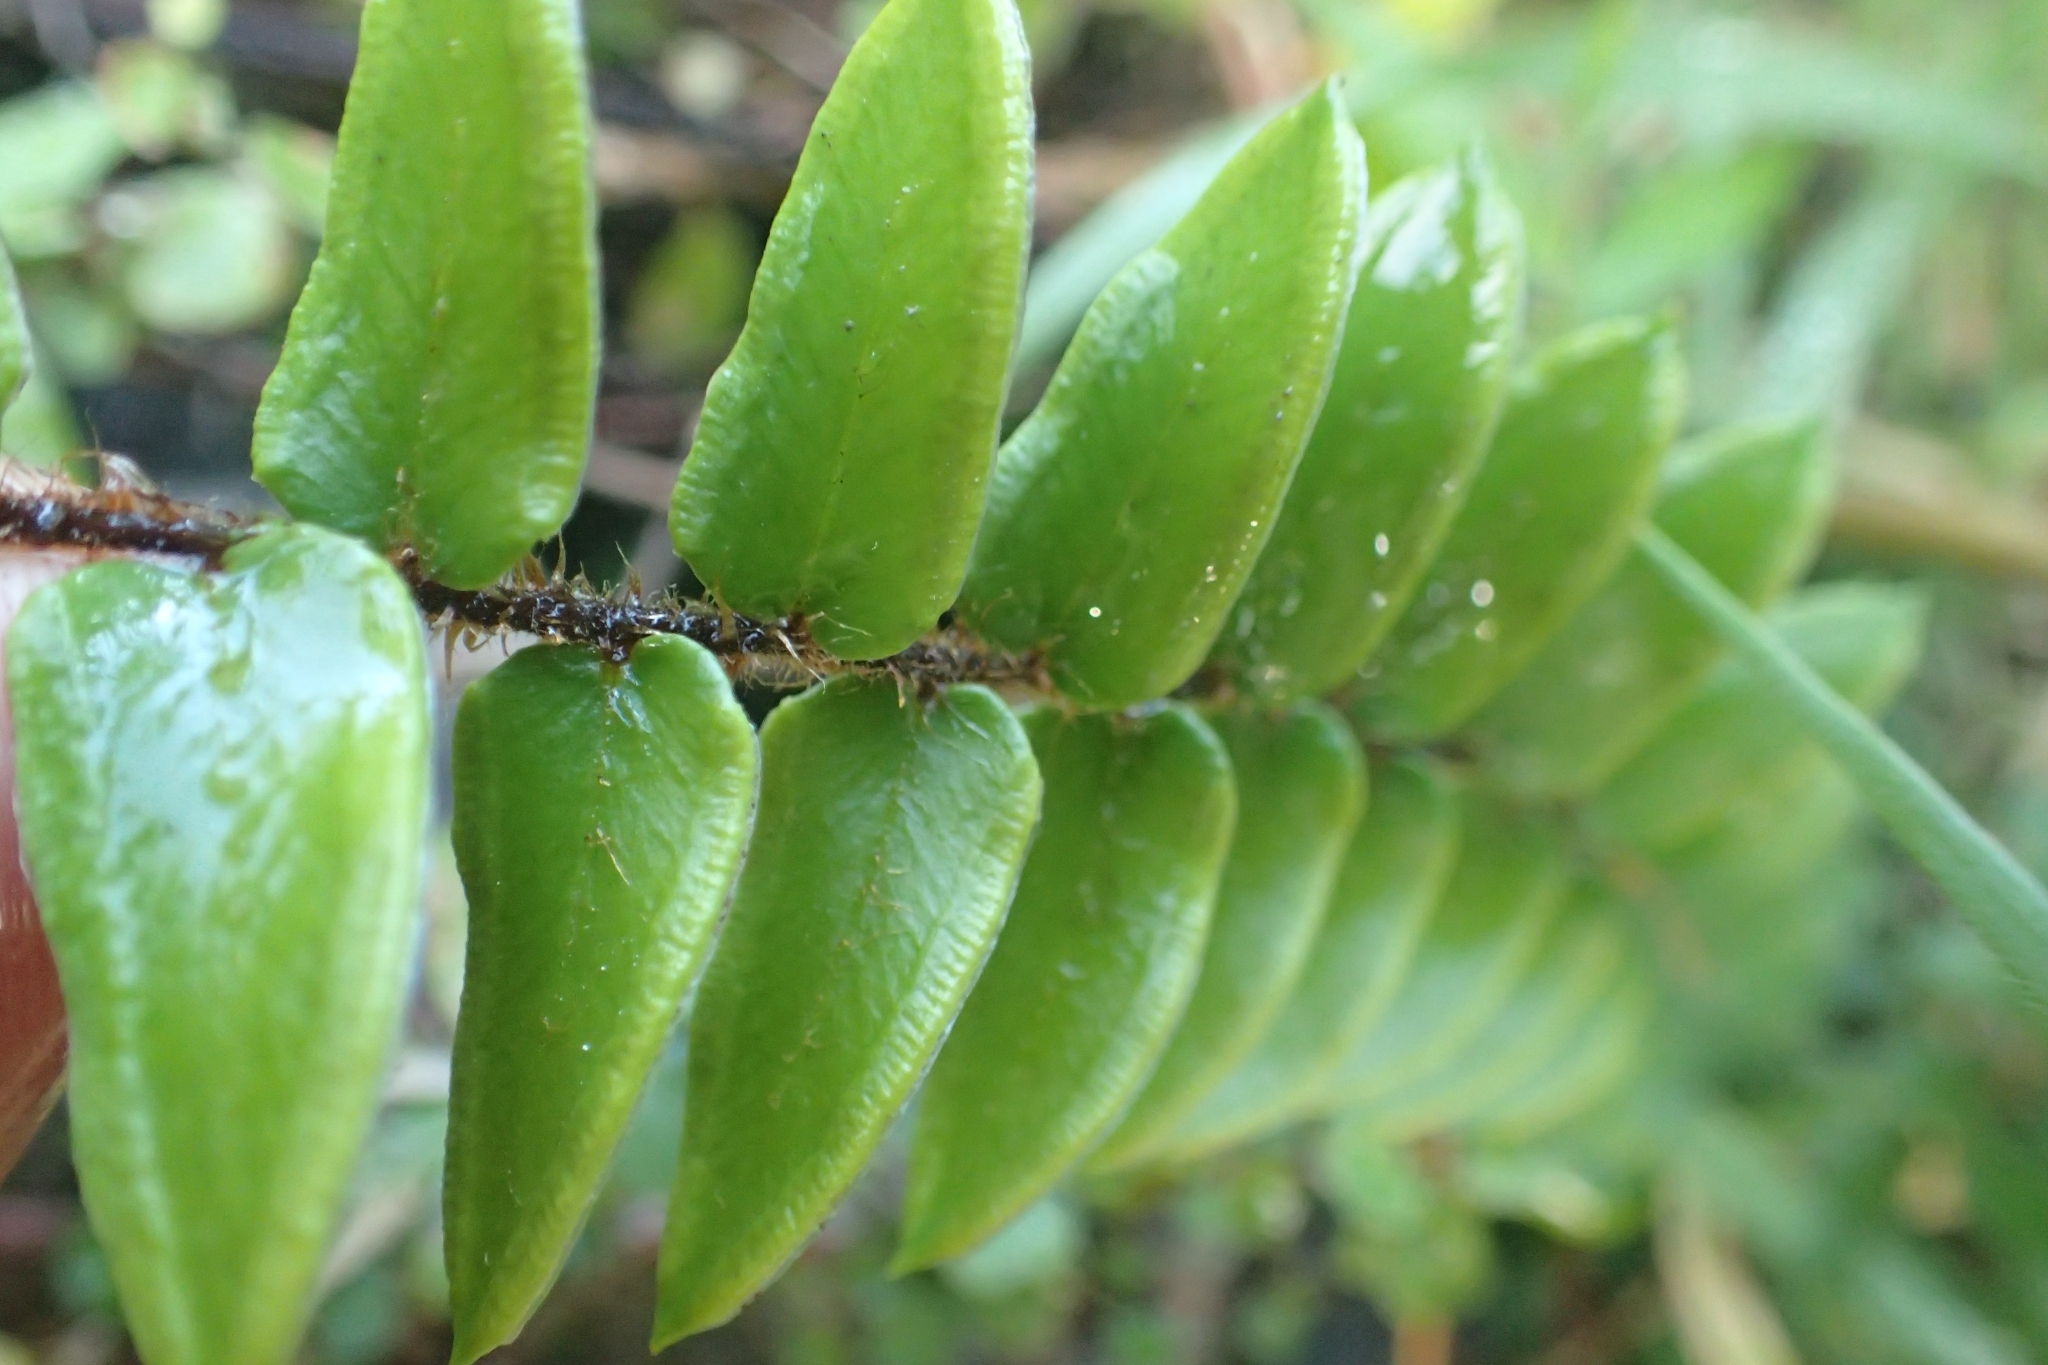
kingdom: Plantae
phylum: Tracheophyta
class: Polypodiopsida
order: Polypodiales
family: Pteridaceae
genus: Pellaea
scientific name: Pellaea rotundifolia
